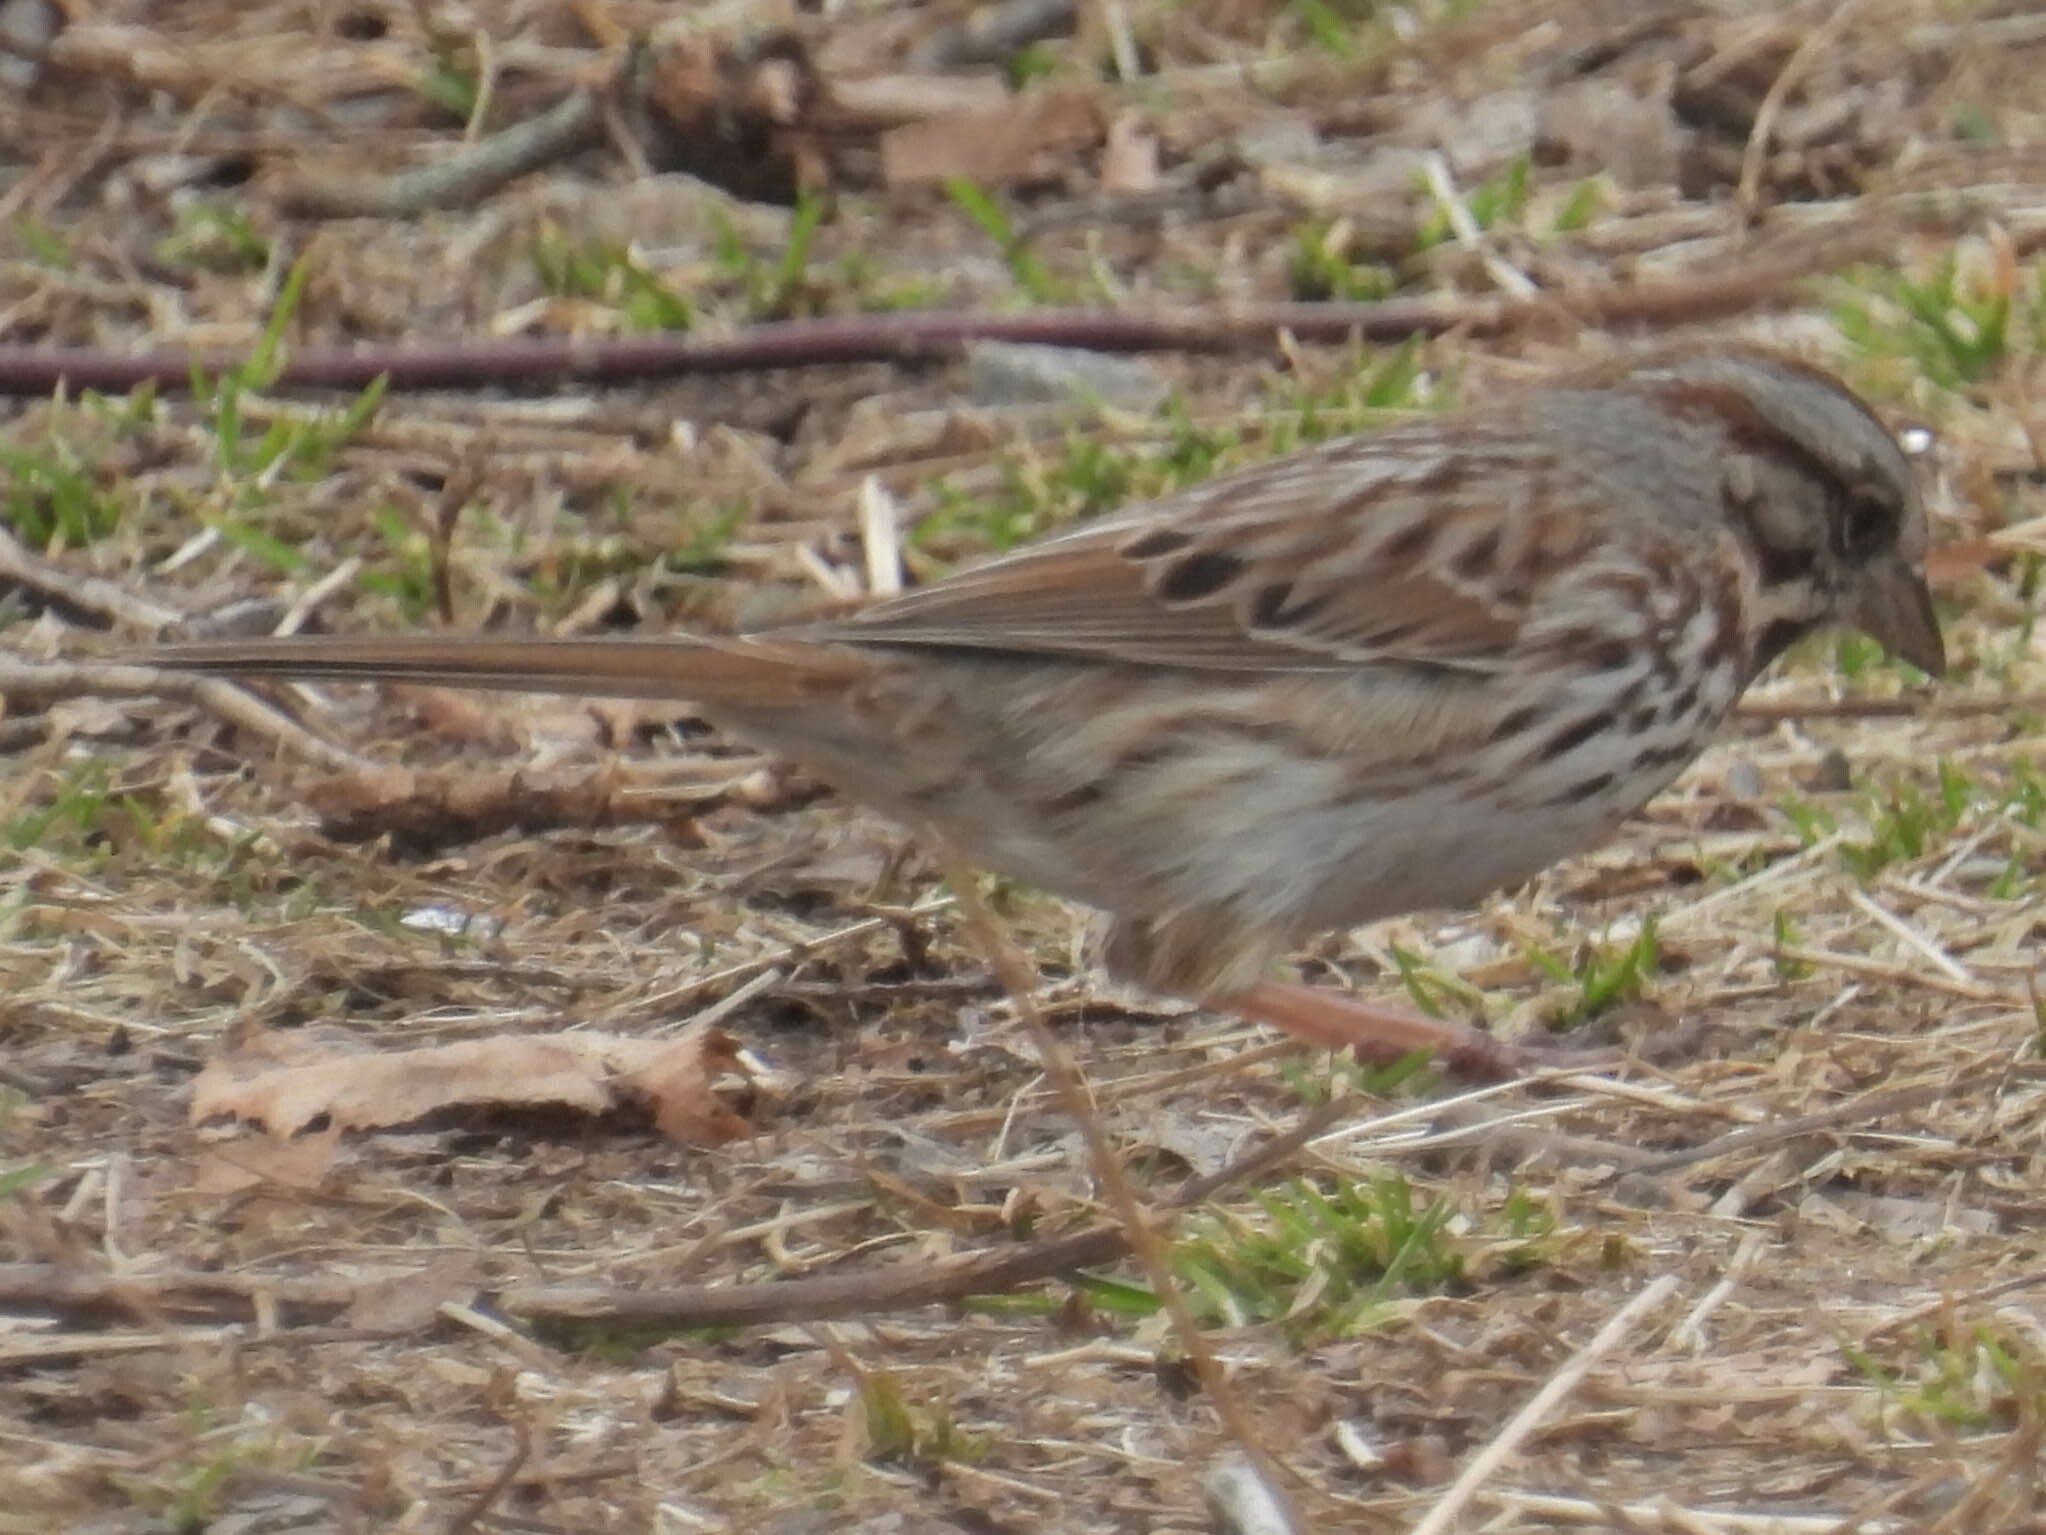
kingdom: Animalia
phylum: Chordata
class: Aves
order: Passeriformes
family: Passerellidae
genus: Melospiza
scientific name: Melospiza melodia
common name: Song sparrow
